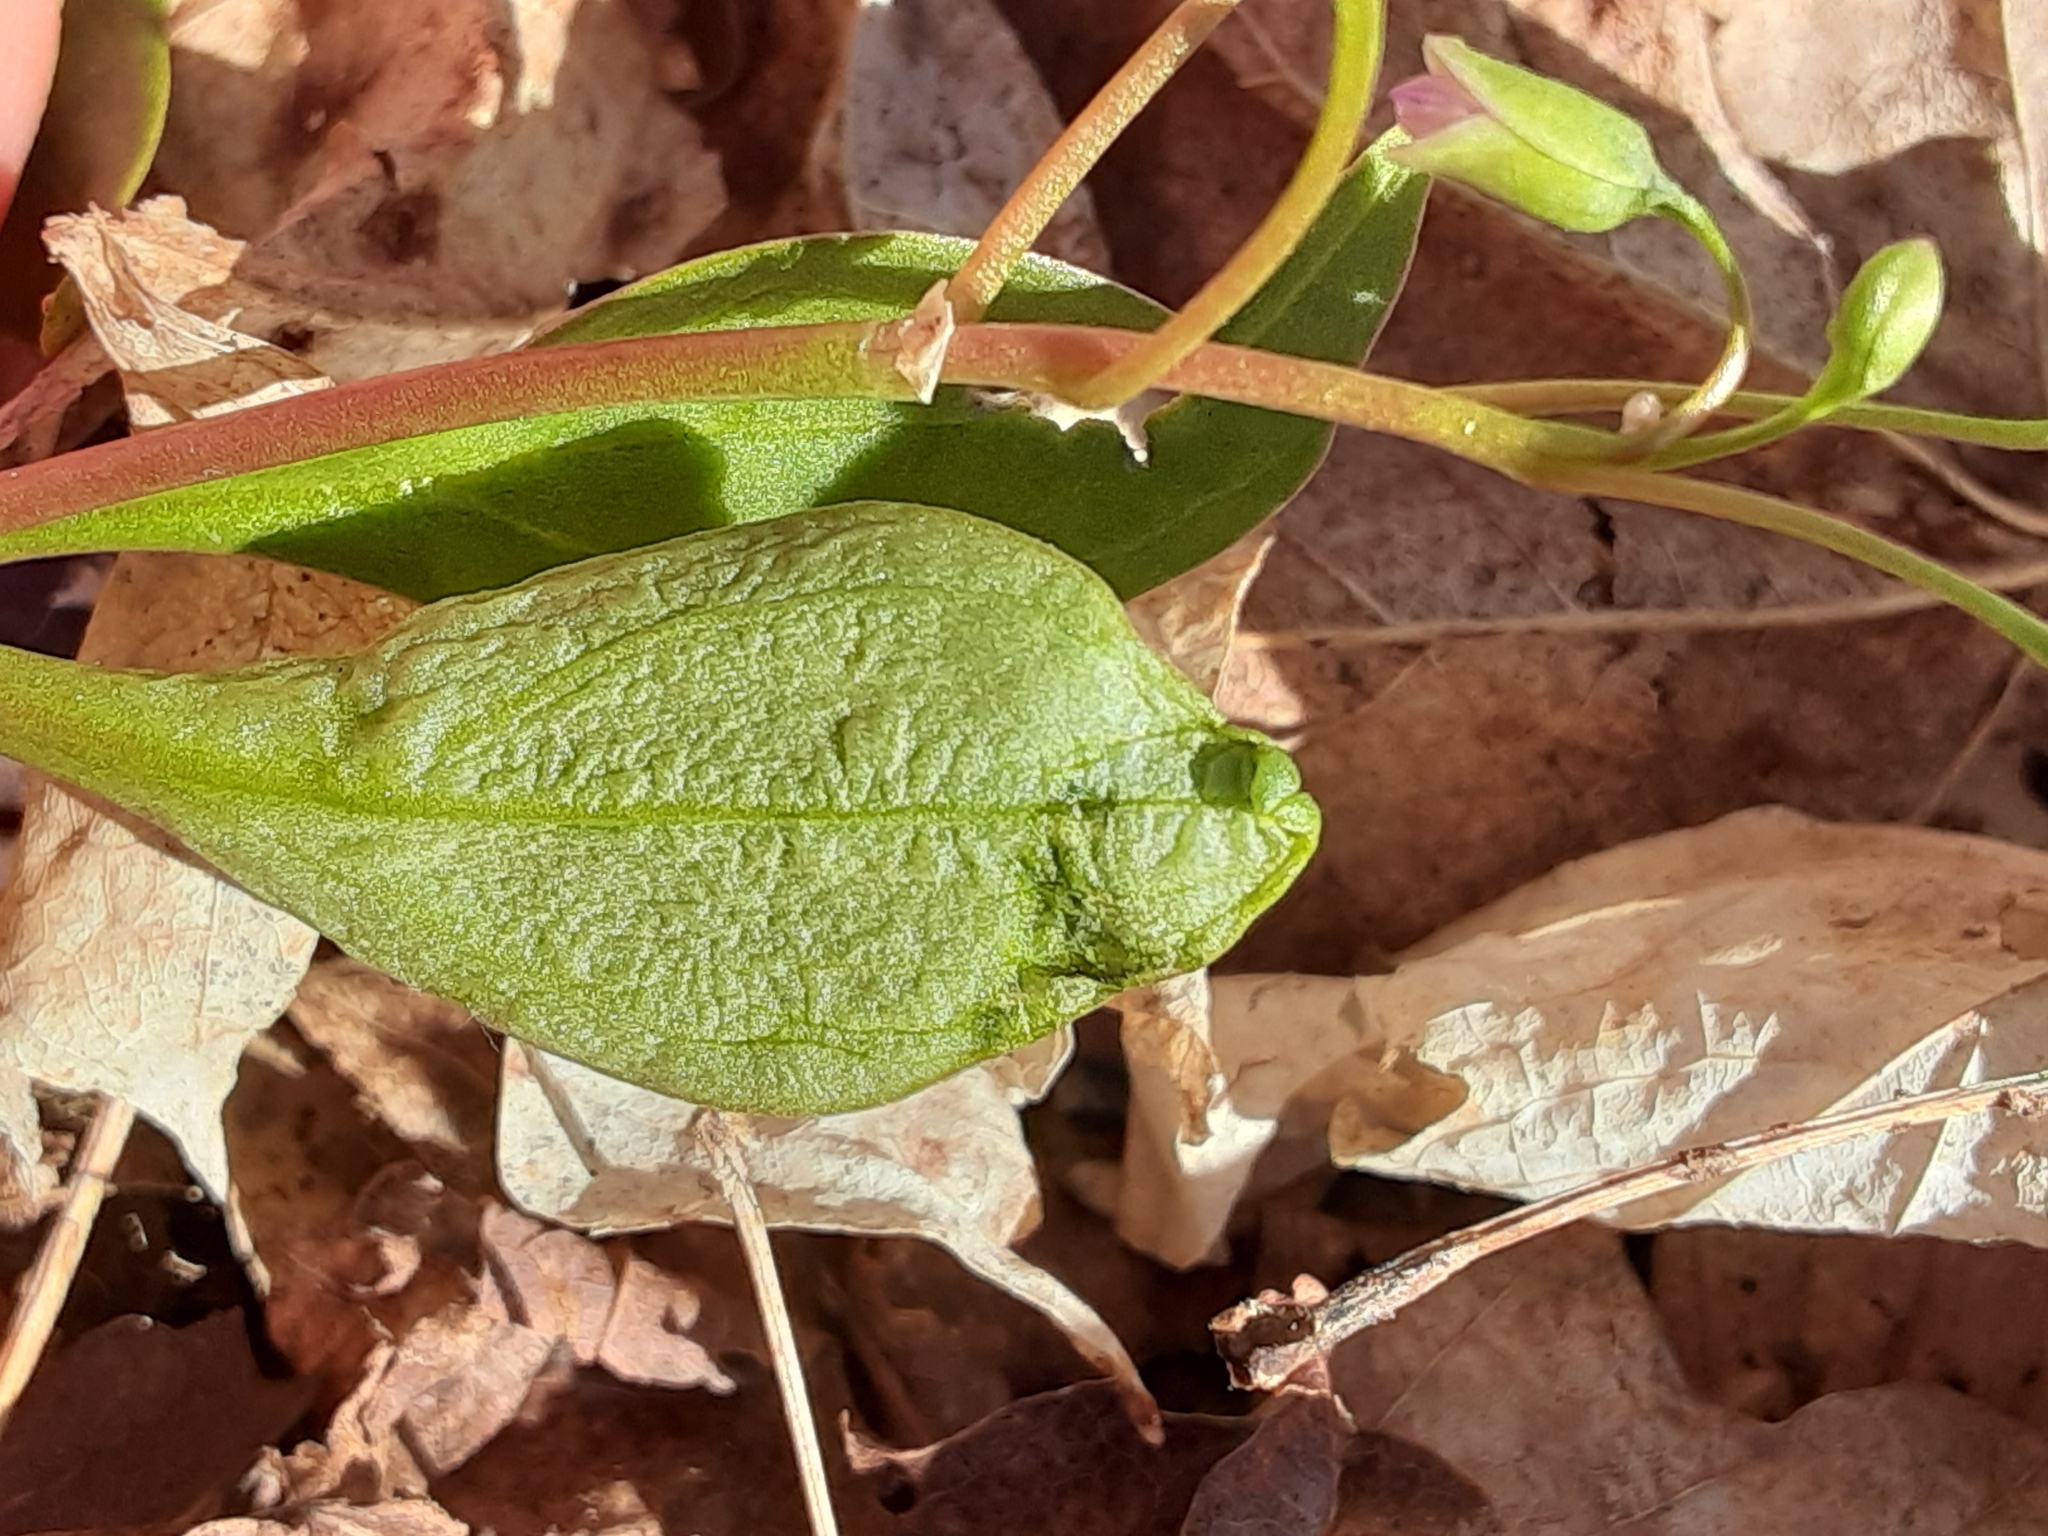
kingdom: Plantae
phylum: Tracheophyta
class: Magnoliopsida
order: Caryophyllales
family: Montiaceae
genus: Claytonia
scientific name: Claytonia caroliniana
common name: Carolina spring beauty
